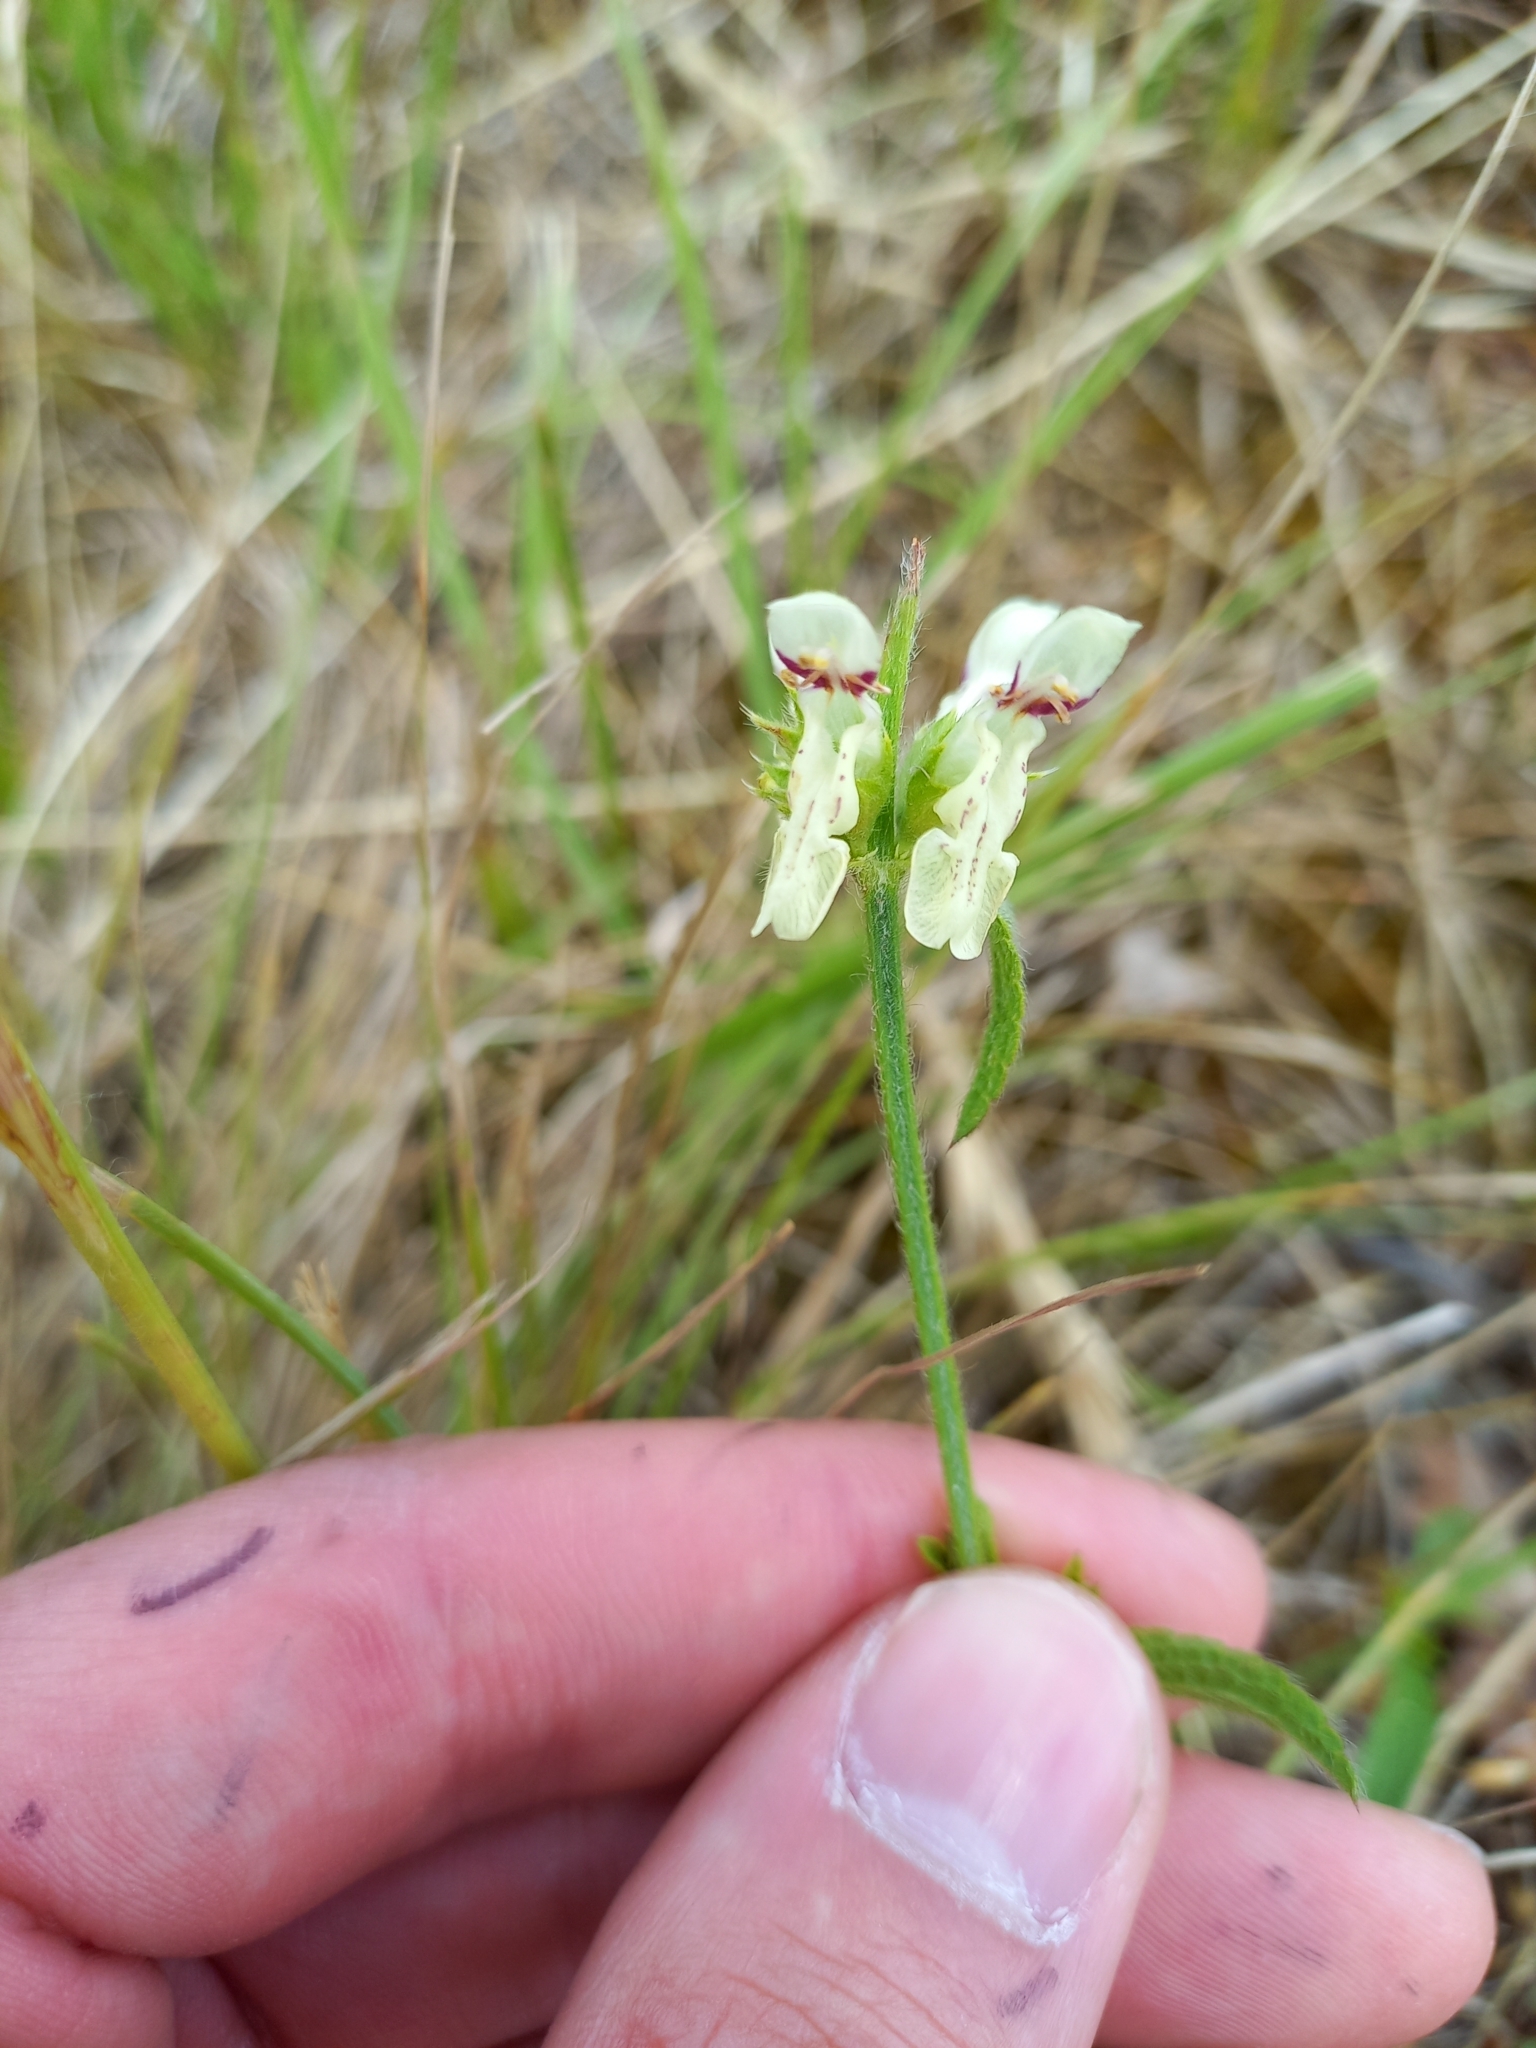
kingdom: Plantae
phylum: Tracheophyta
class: Magnoliopsida
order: Lamiales
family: Lamiaceae
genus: Stachys
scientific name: Stachys recta
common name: Perennial yellow-woundwort
